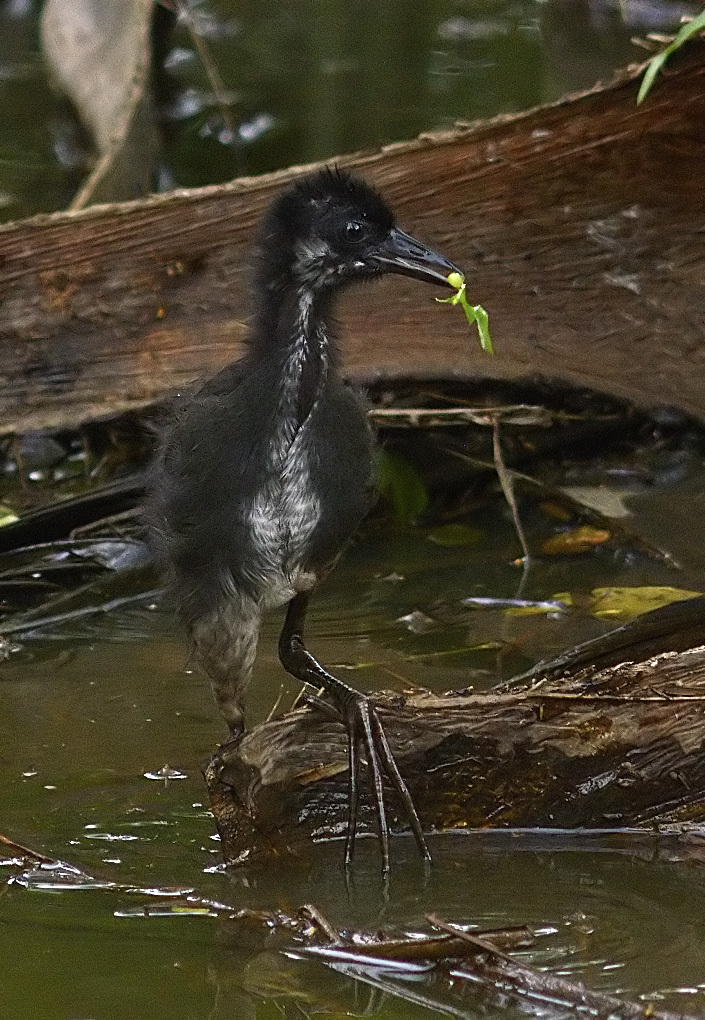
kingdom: Animalia
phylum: Chordata
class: Aves
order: Gruiformes
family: Rallidae
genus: Amaurornis
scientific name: Amaurornis phoenicurus
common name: White-breasted waterhen
